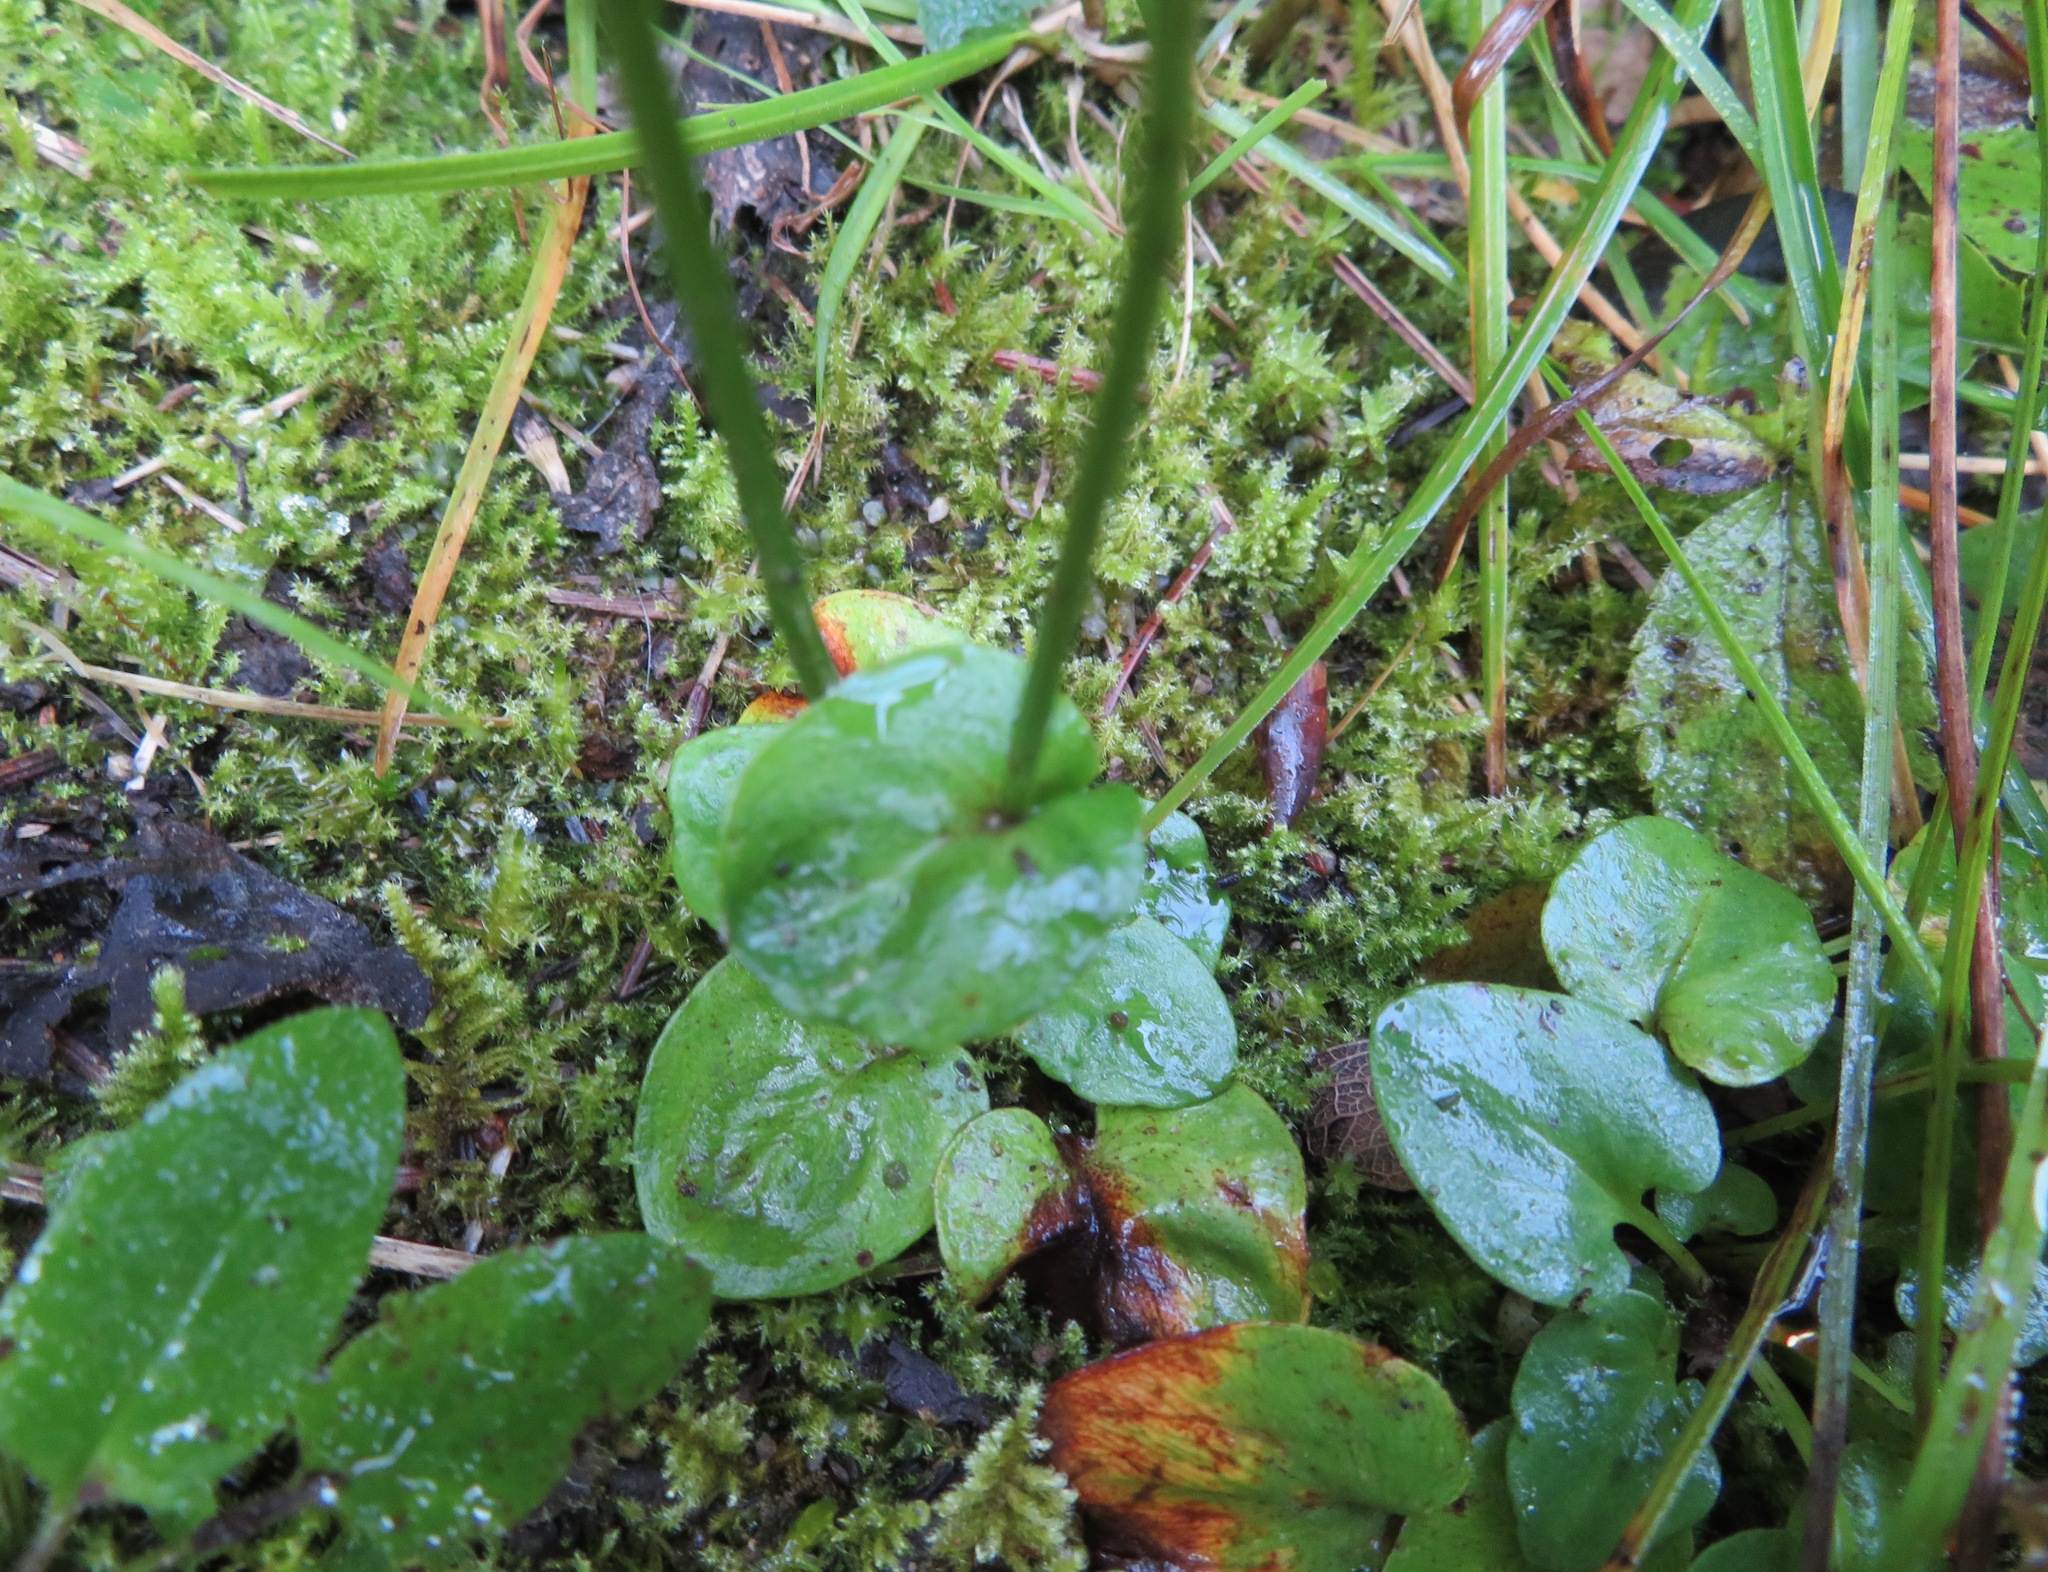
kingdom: Plantae
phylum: Tracheophyta
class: Magnoliopsida
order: Celastrales
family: Parnassiaceae
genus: Parnassia
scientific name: Parnassia palustris
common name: Grass-of-parnassus
